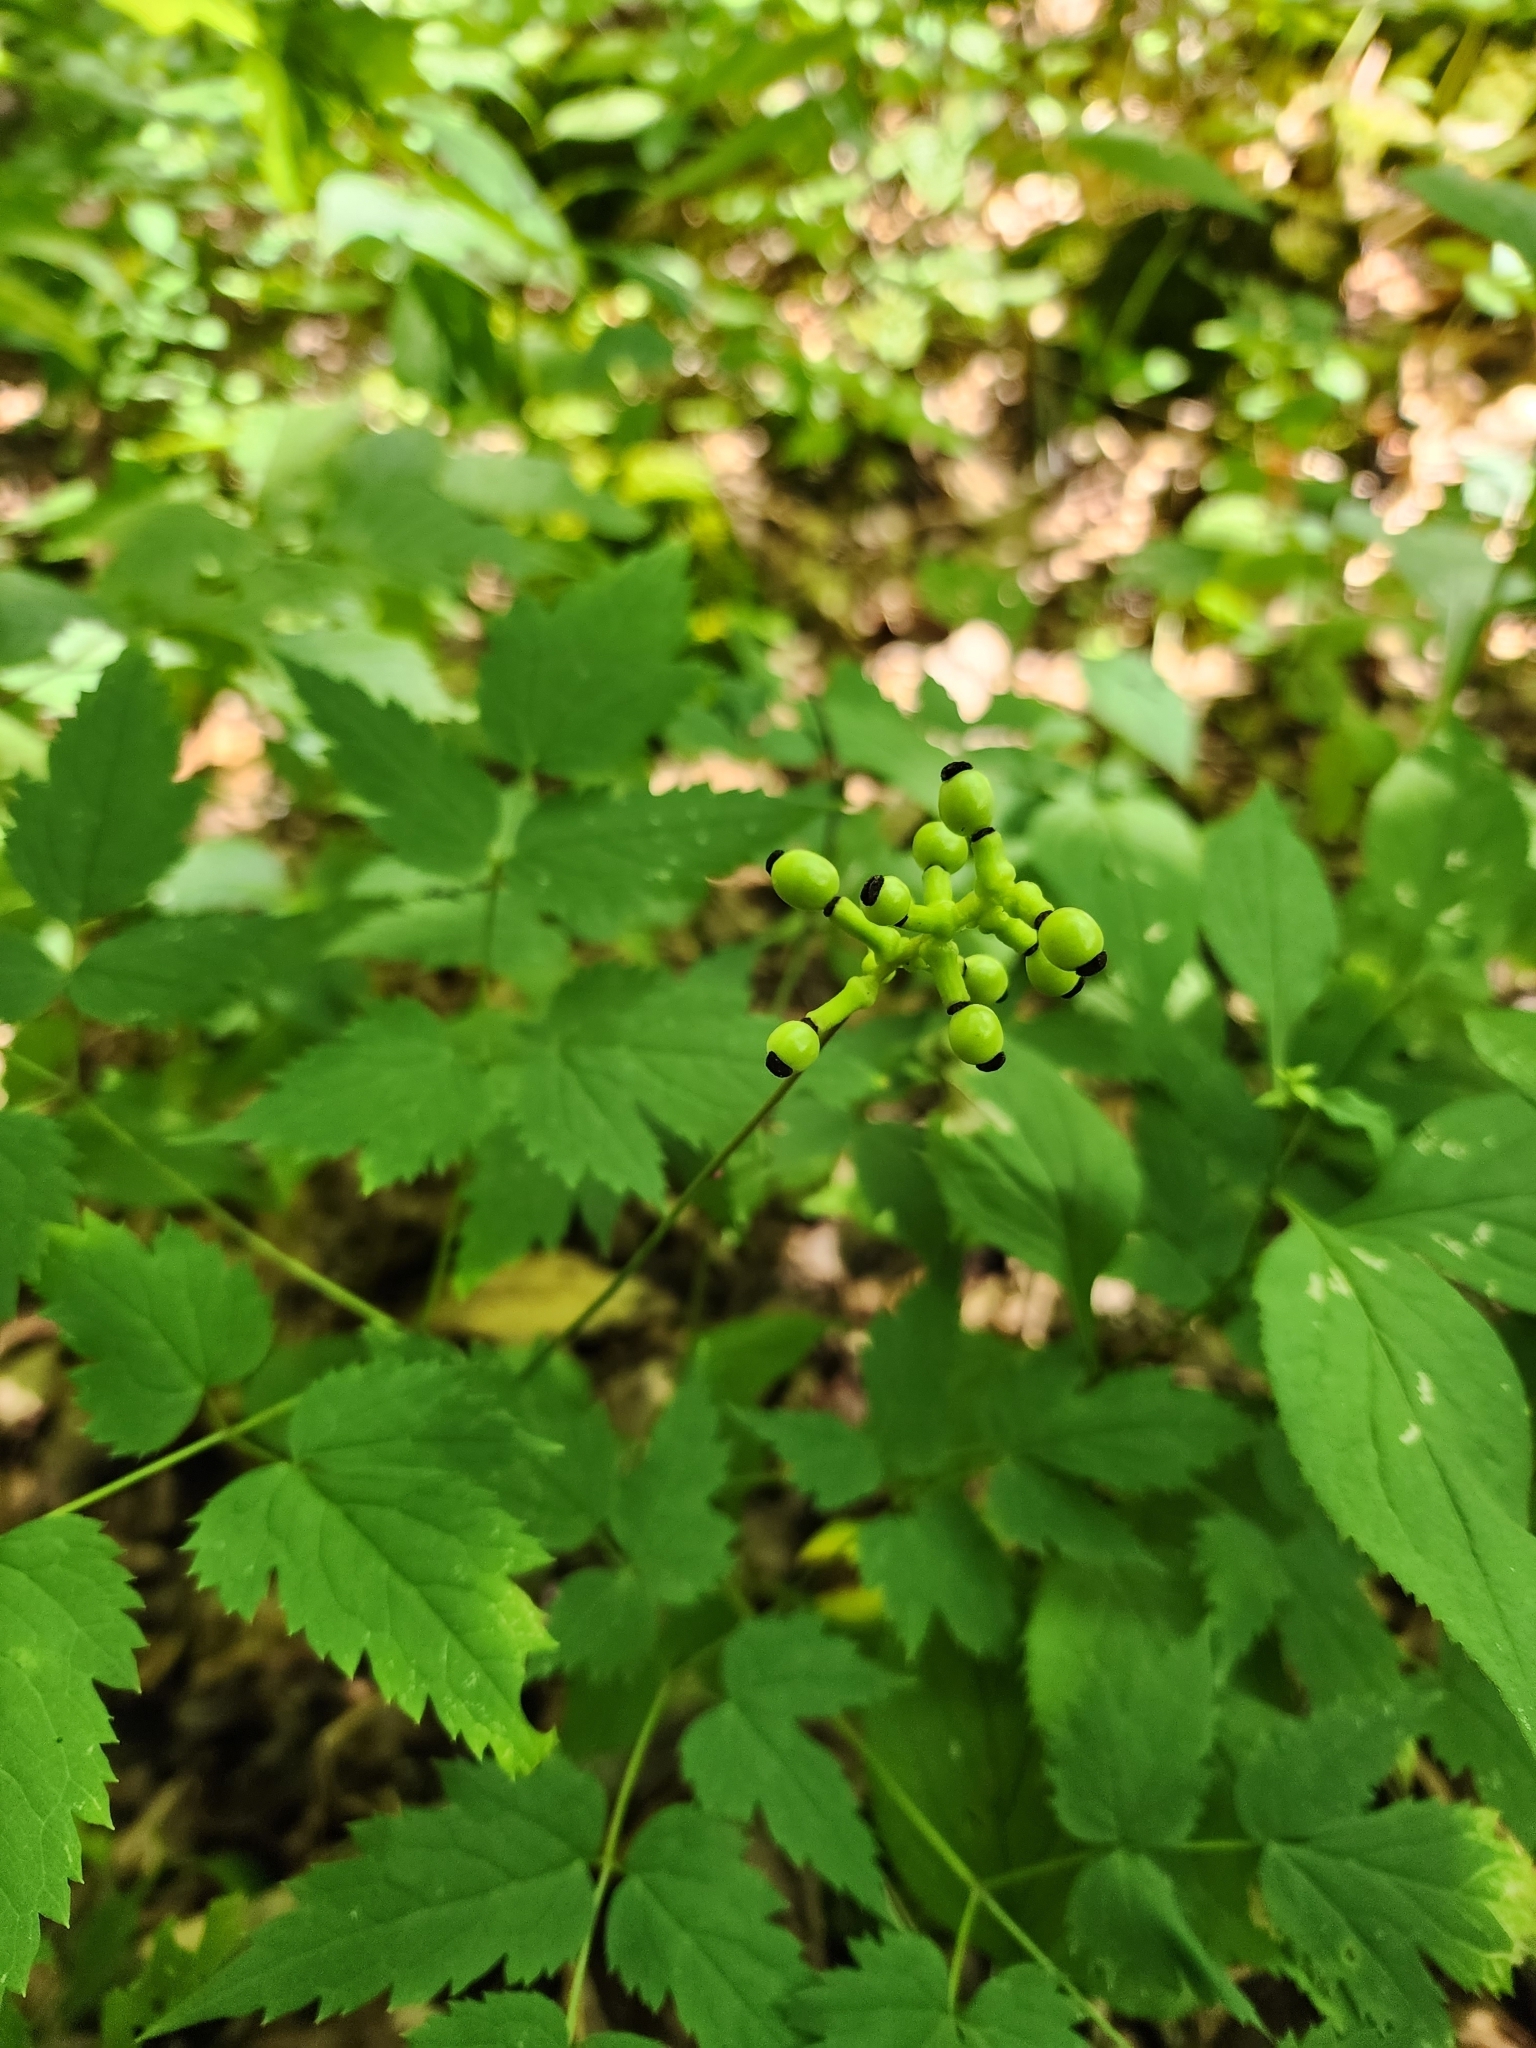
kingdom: Plantae
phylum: Tracheophyta
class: Magnoliopsida
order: Ranunculales
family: Ranunculaceae
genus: Actaea
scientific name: Actaea pachypoda
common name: Doll's-eyes
